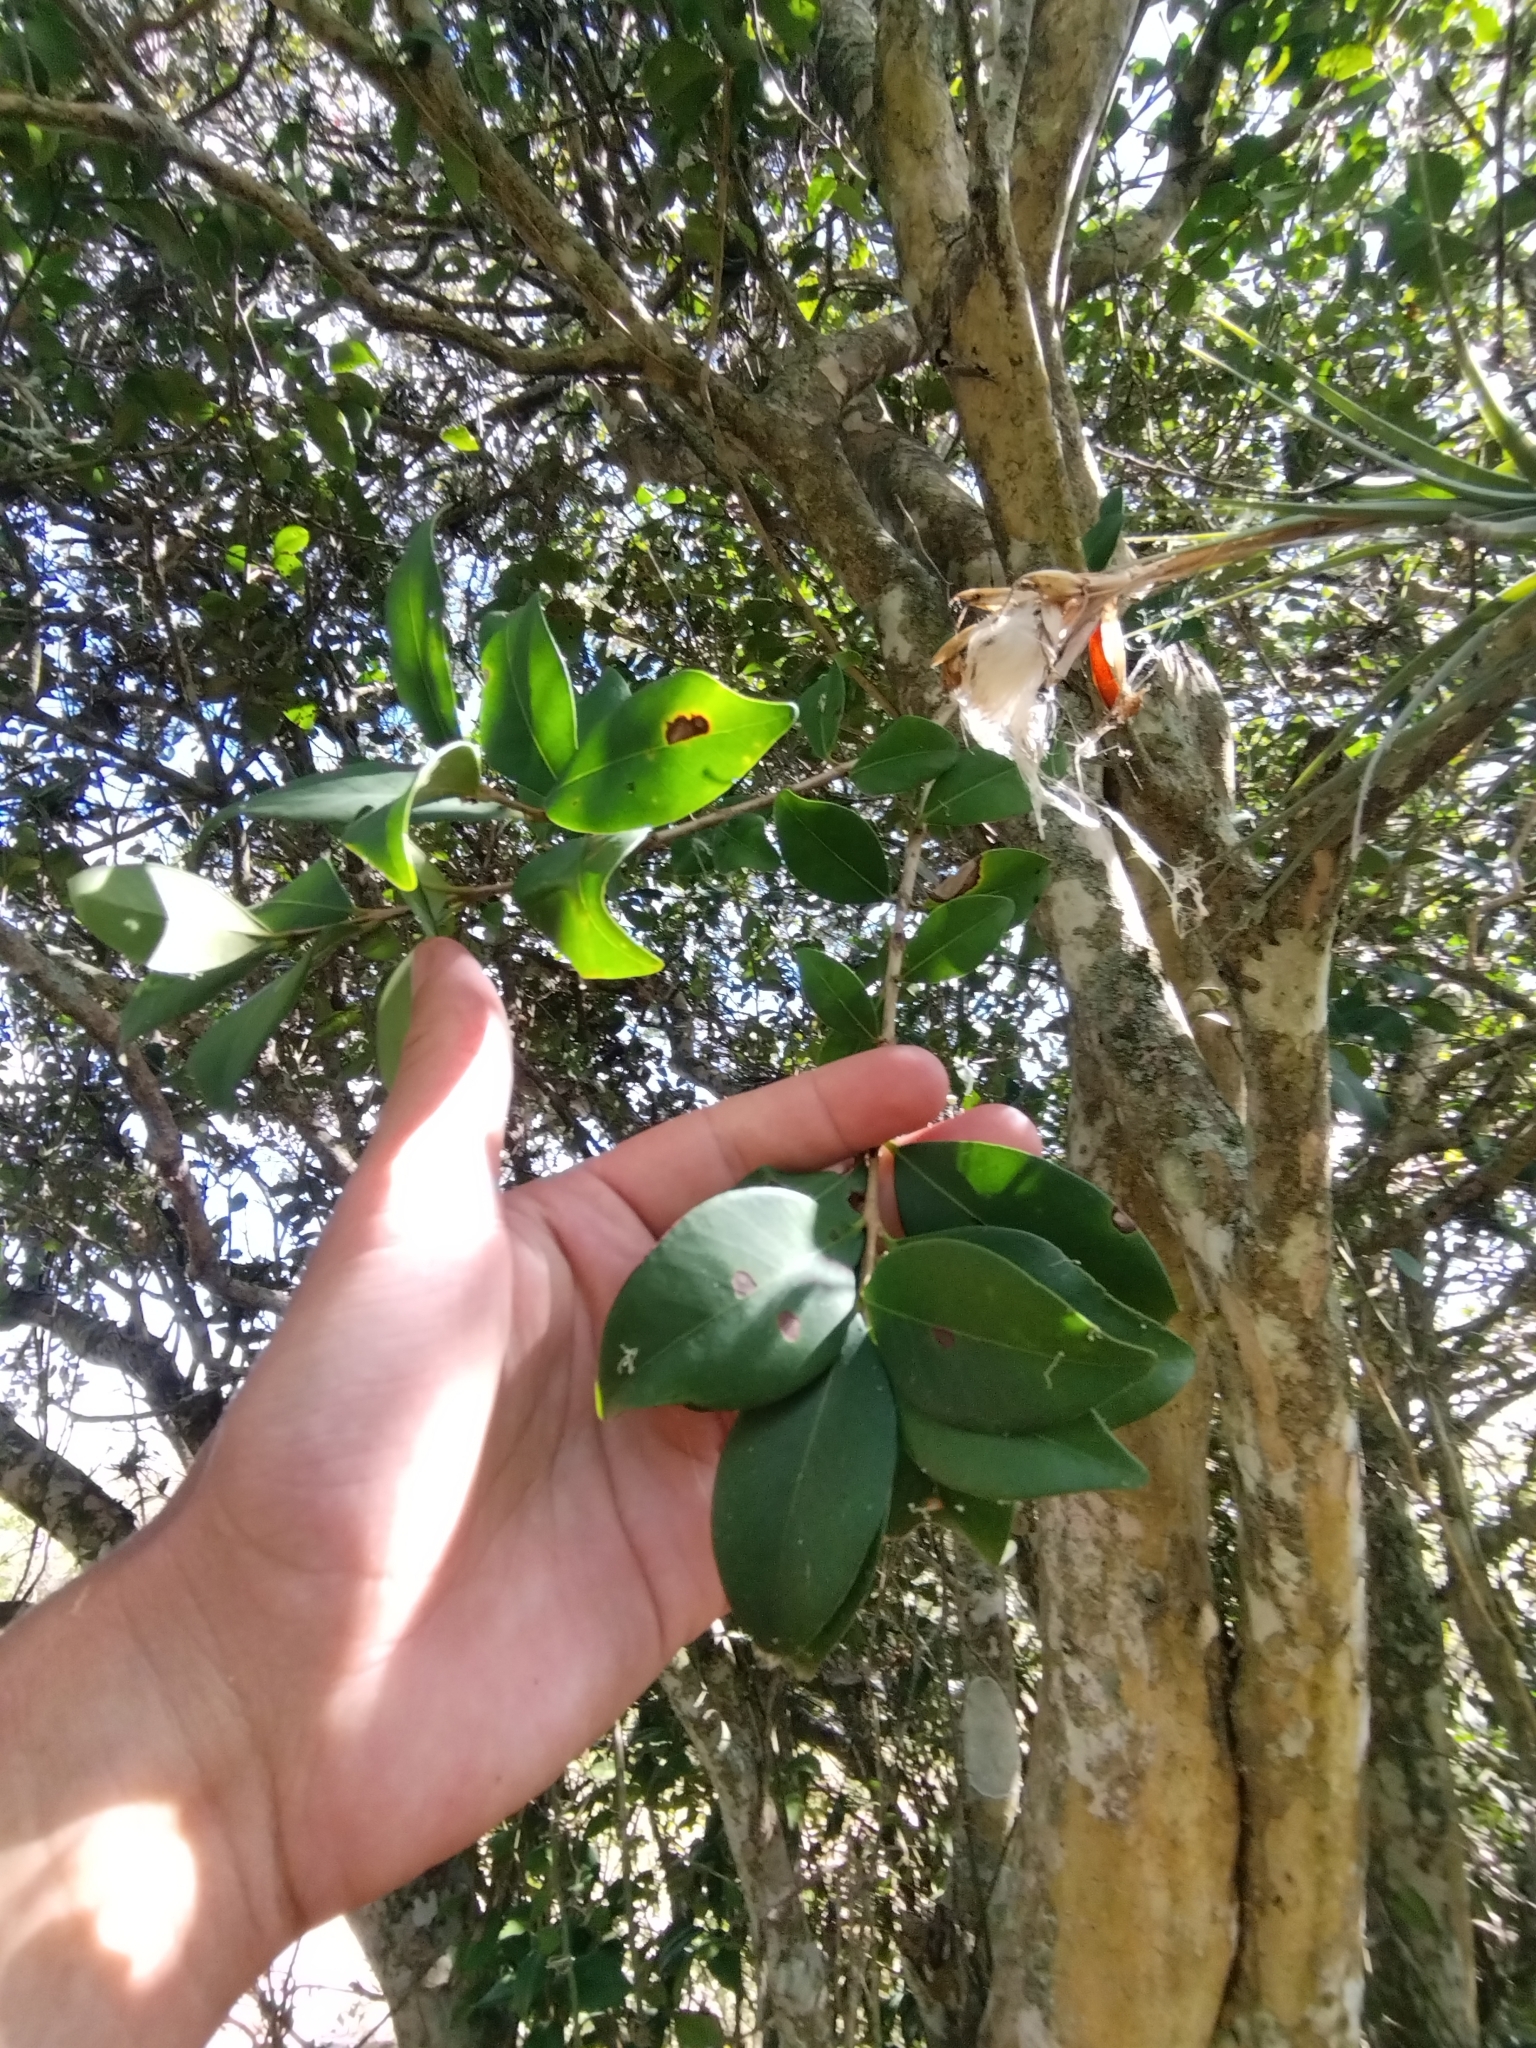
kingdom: Plantae
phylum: Tracheophyta
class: Magnoliopsida
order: Myrtales
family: Myrtaceae
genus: Eugenia
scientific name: Eugenia uruguayensis
